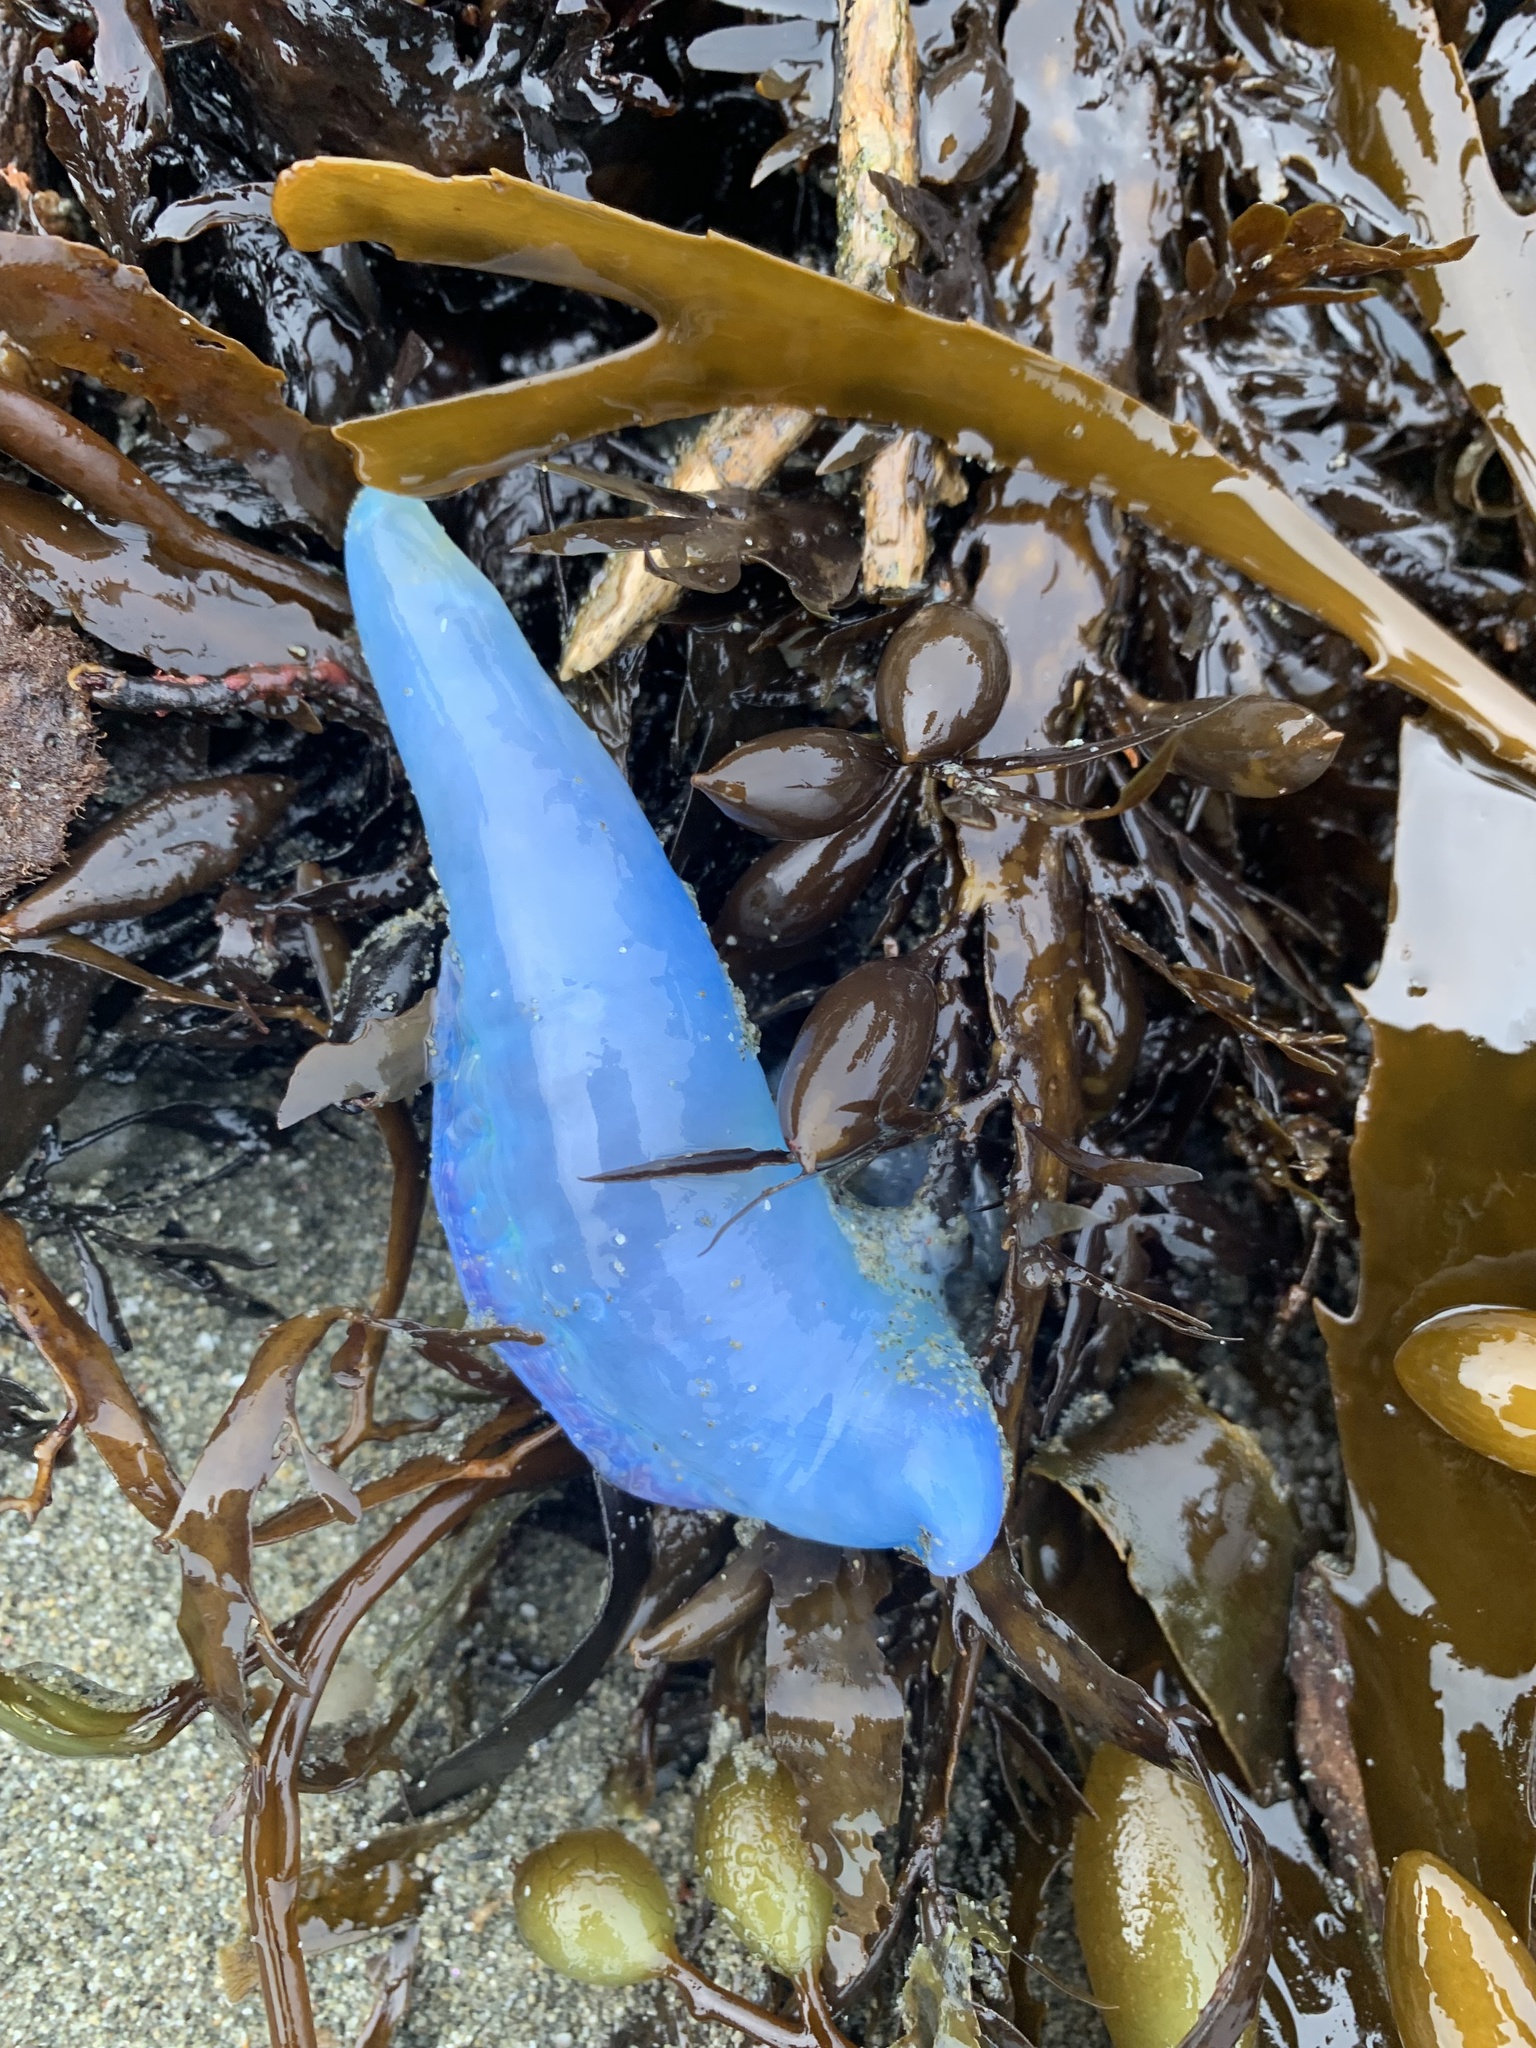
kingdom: Animalia
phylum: Cnidaria
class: Hydrozoa
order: Siphonophorae
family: Physaliidae
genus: Physalia
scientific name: Physalia physalis
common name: Portuguese man-of-war
